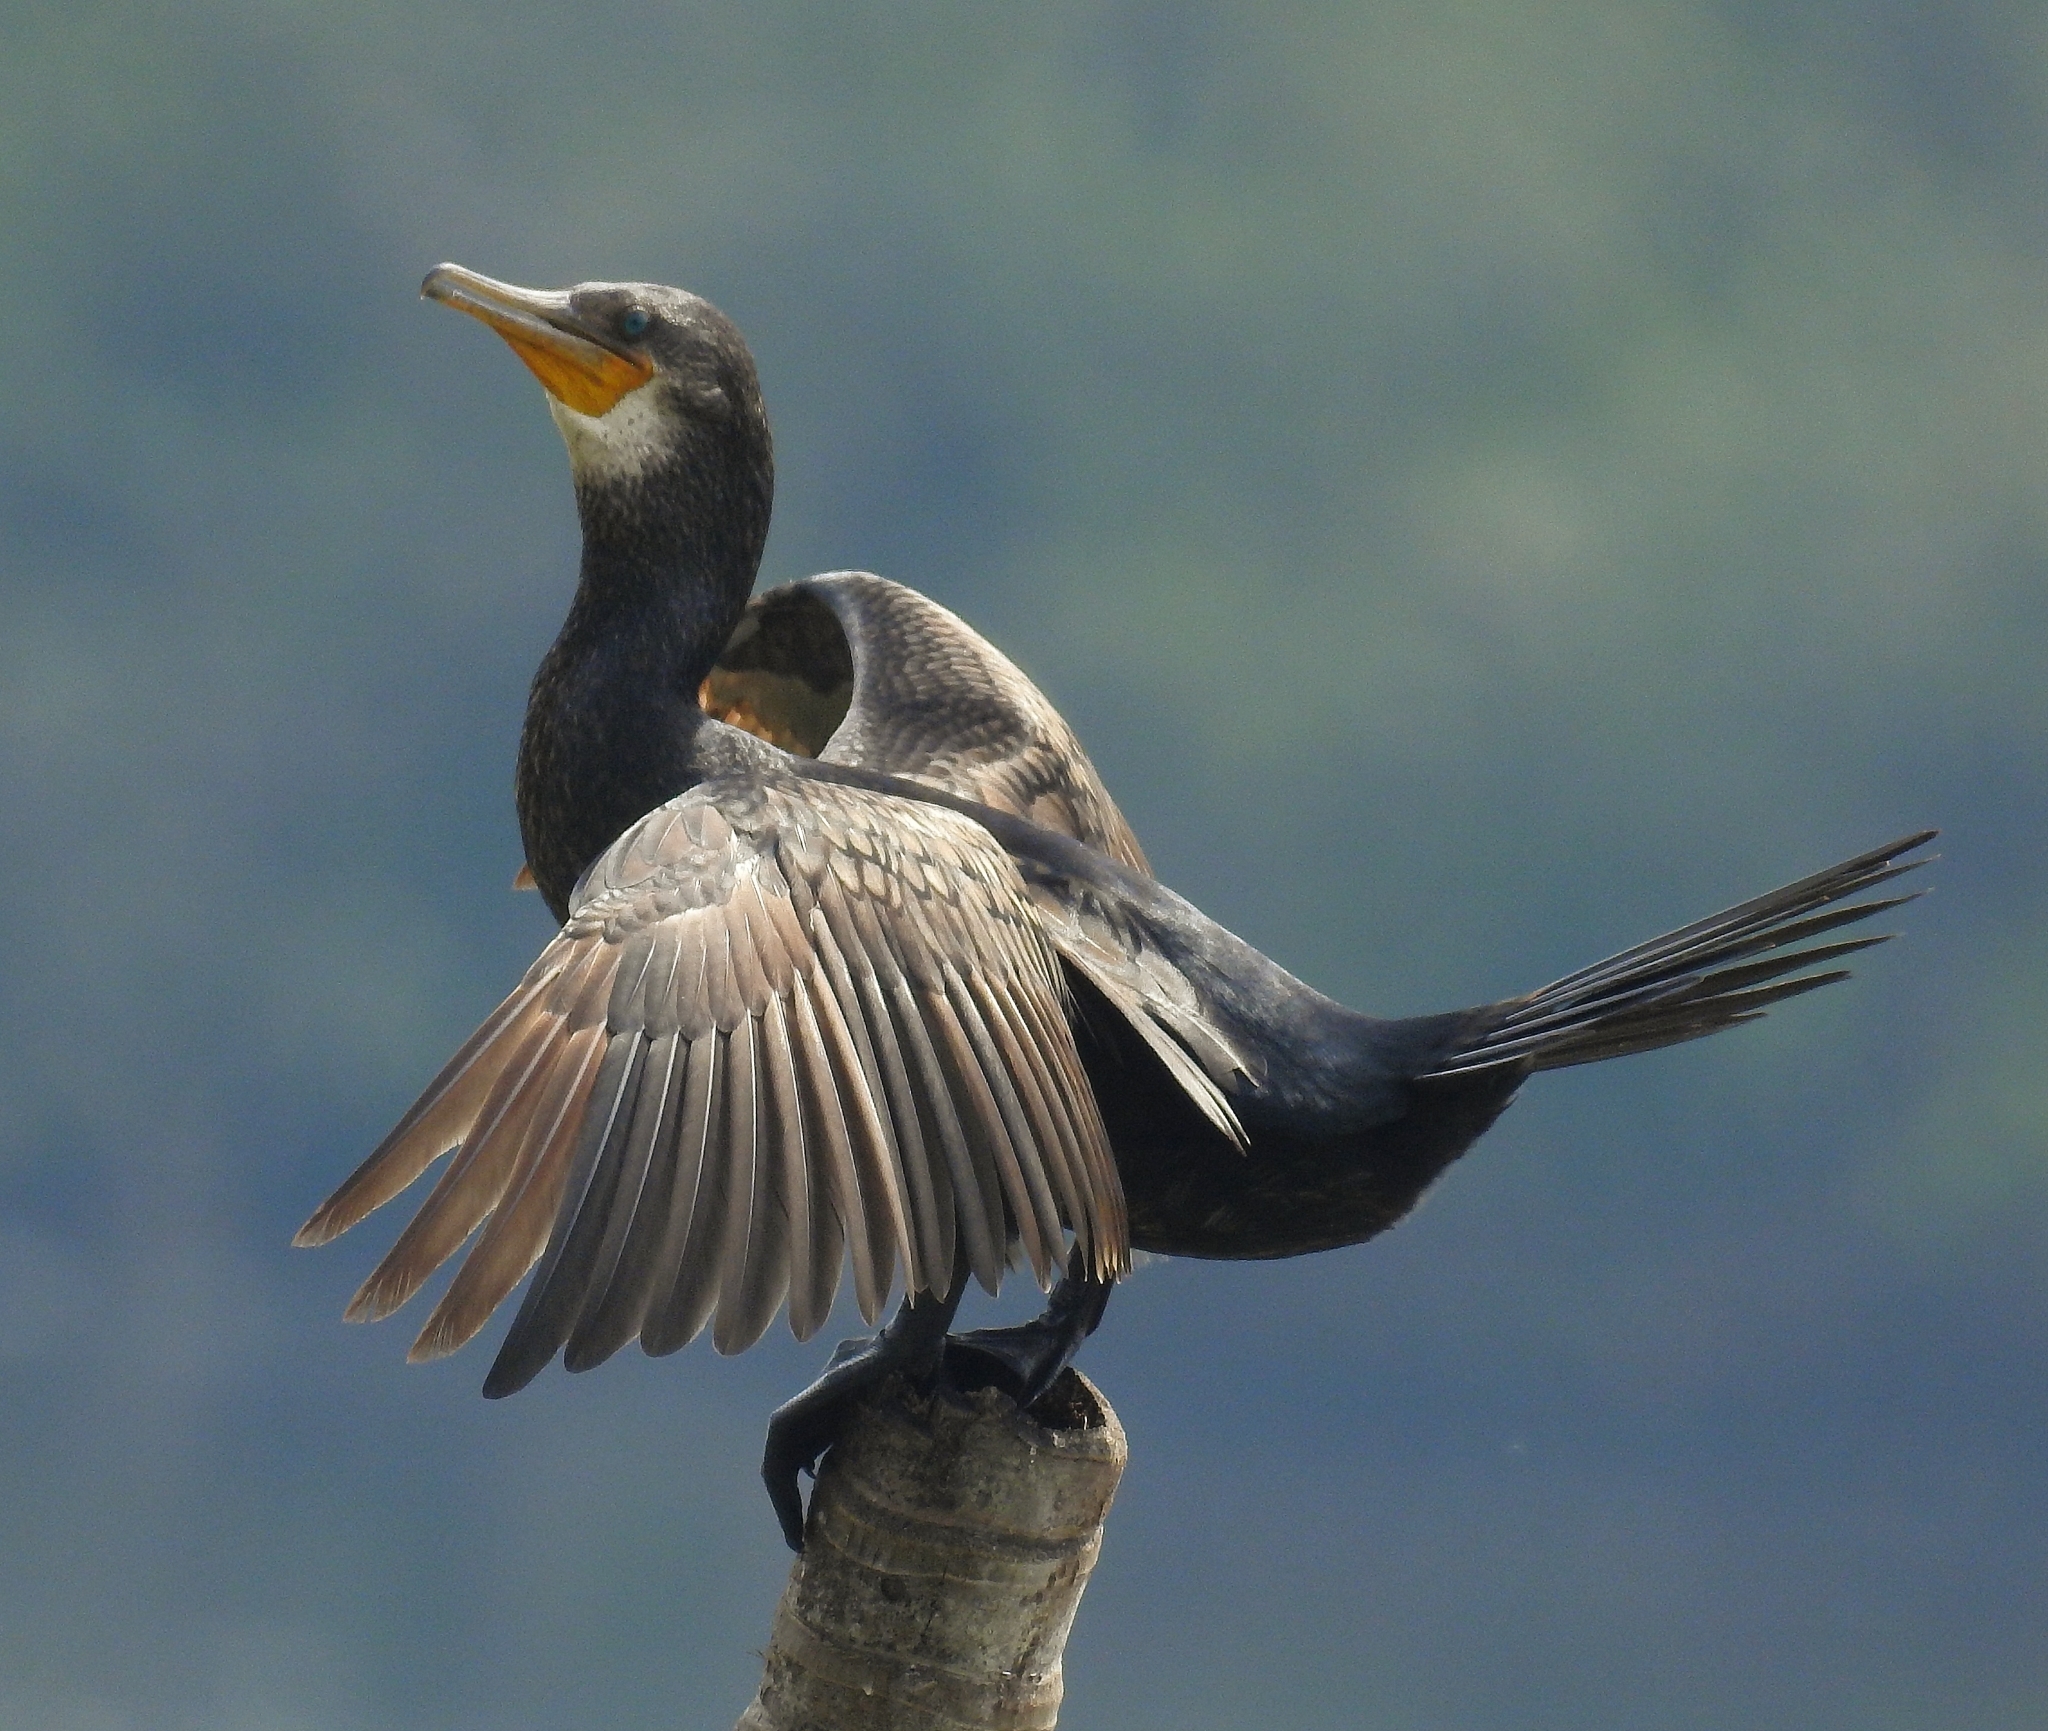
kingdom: Animalia
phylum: Chordata
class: Aves
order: Suliformes
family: Phalacrocoracidae
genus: Phalacrocorax
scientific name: Phalacrocorax carbo
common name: Great cormorant
